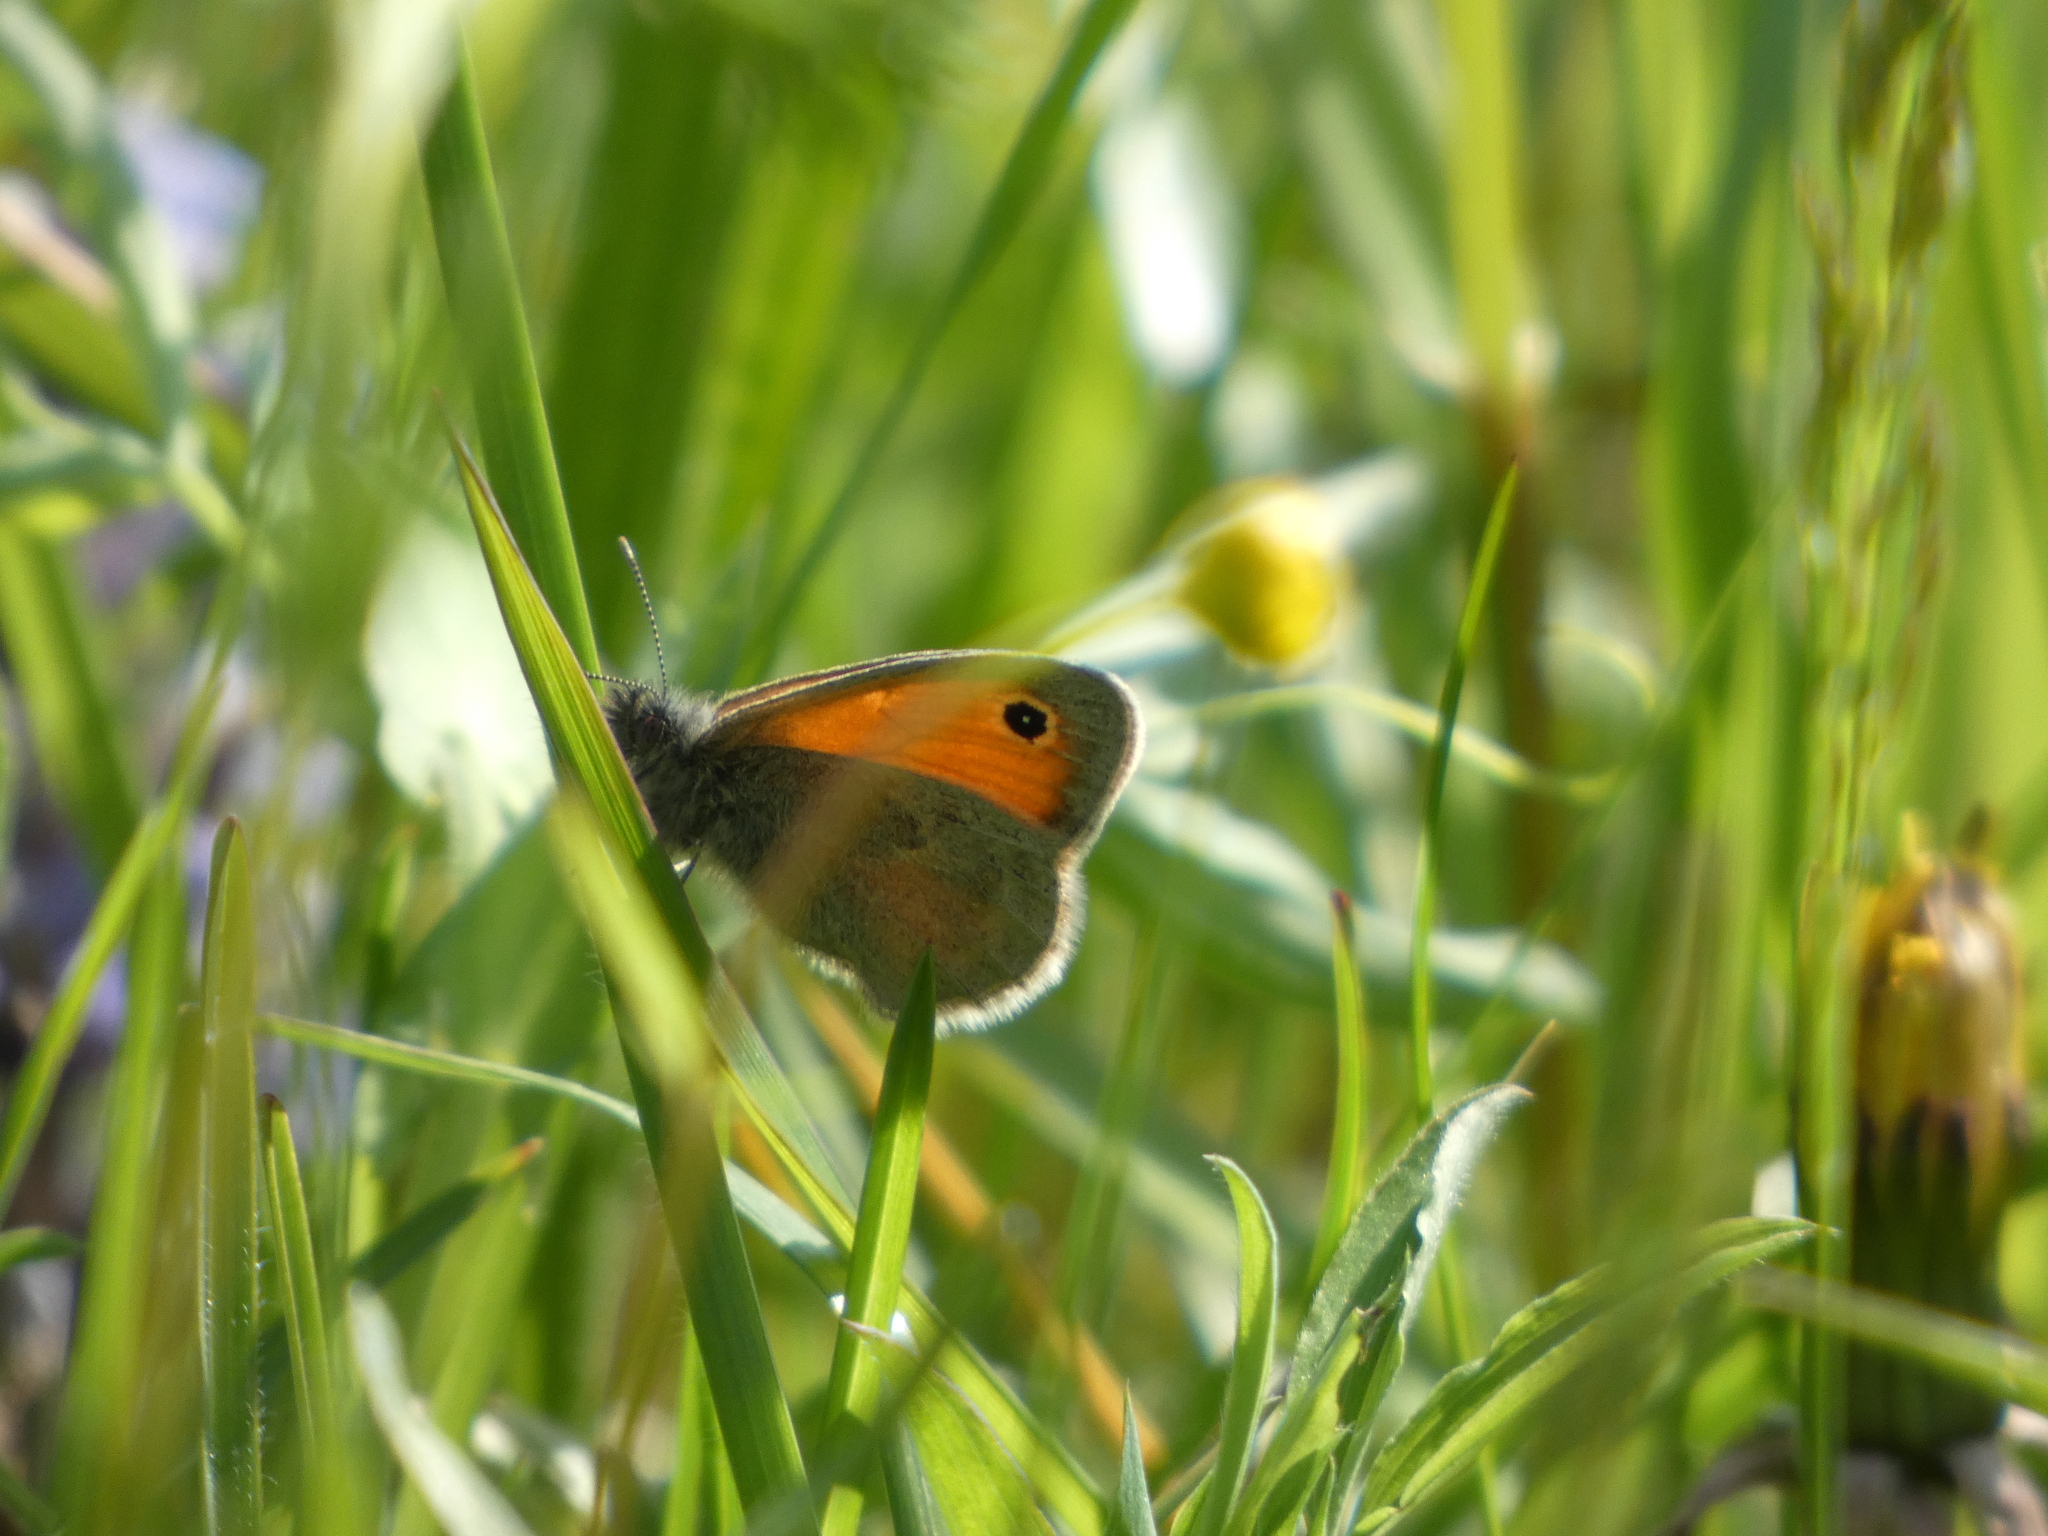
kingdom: Animalia
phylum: Arthropoda
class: Insecta
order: Lepidoptera
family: Nymphalidae
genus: Coenonympha
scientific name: Coenonympha pamphilus
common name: Small heath
